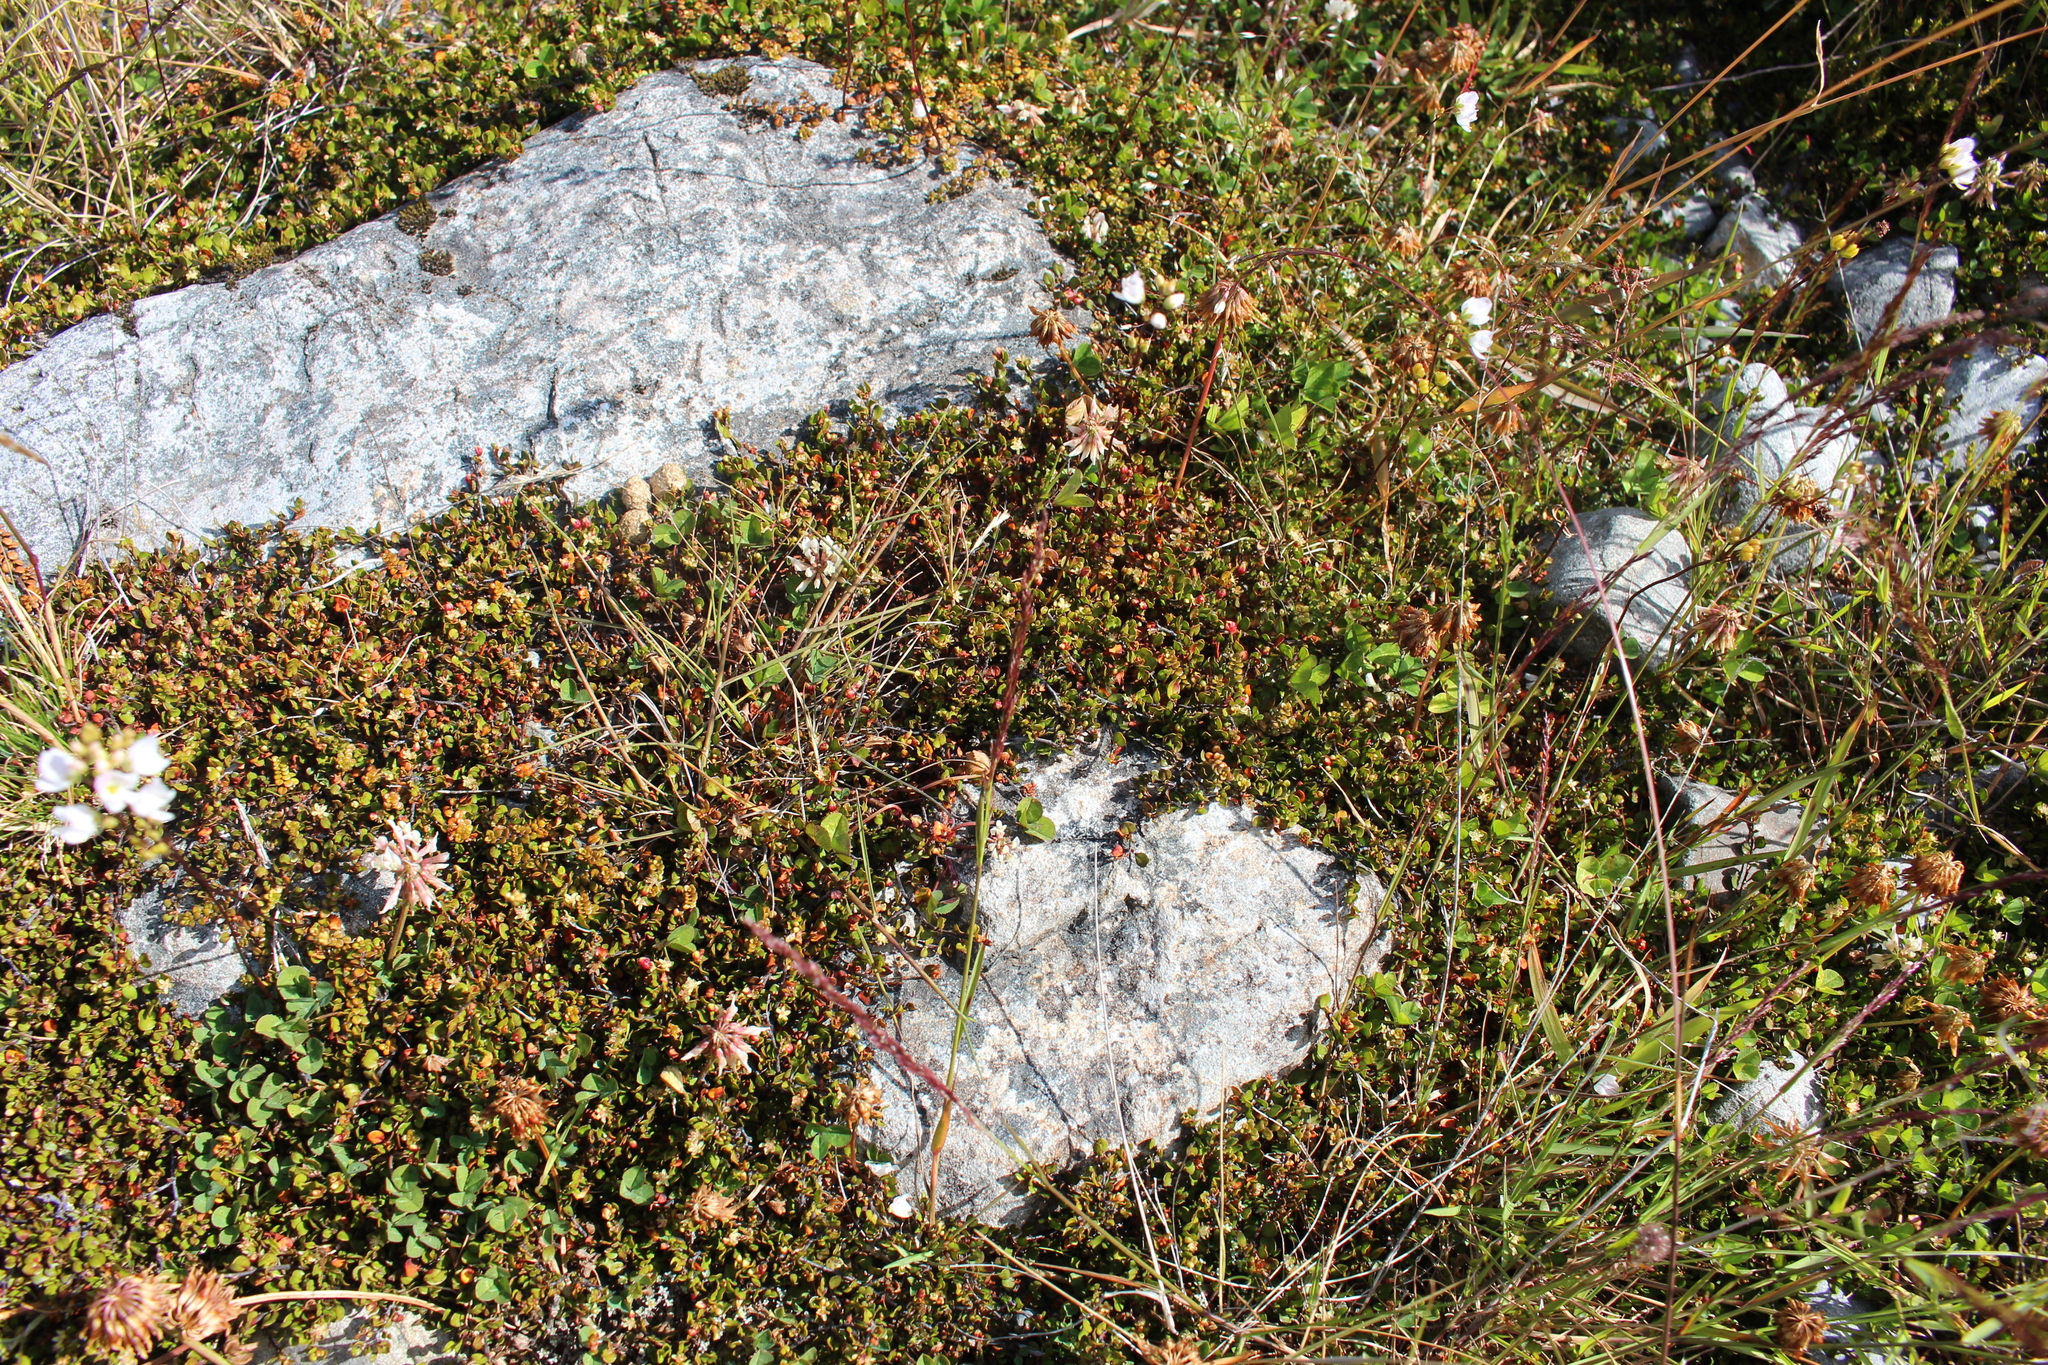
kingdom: Plantae
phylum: Tracheophyta
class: Magnoliopsida
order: Caryophyllales
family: Polygonaceae
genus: Muehlenbeckia
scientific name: Muehlenbeckia axillaris
